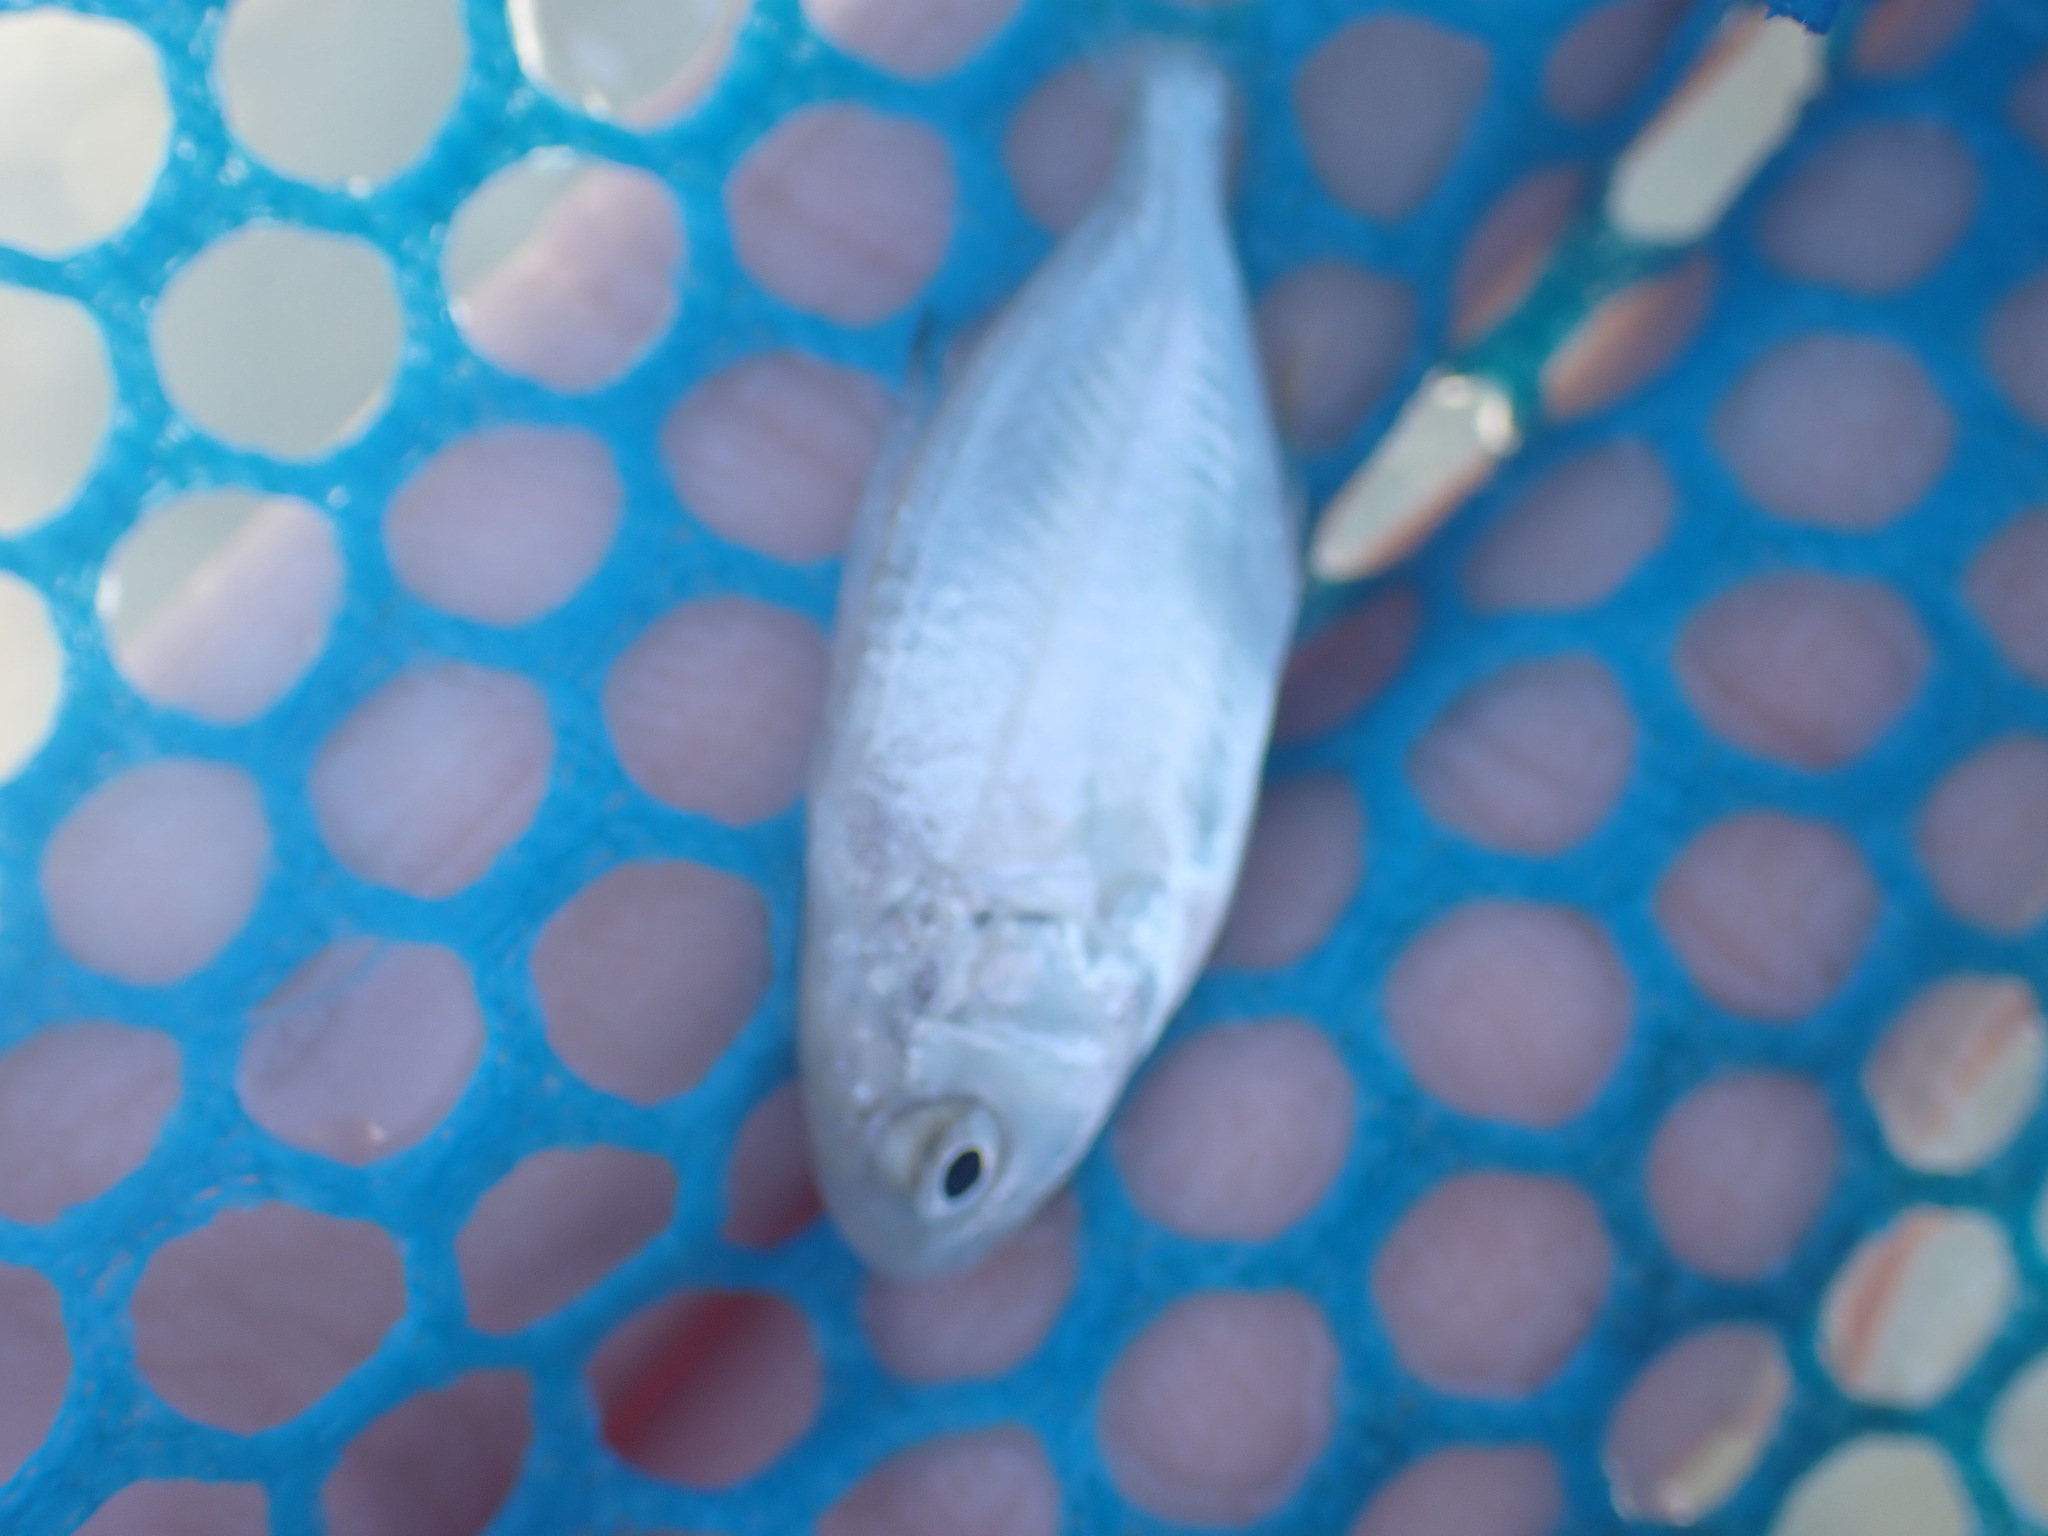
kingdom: Animalia
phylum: Chordata
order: Perciformes
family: Carangidae
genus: Trachinotus
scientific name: Trachinotus carolinus
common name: Florida pompano
